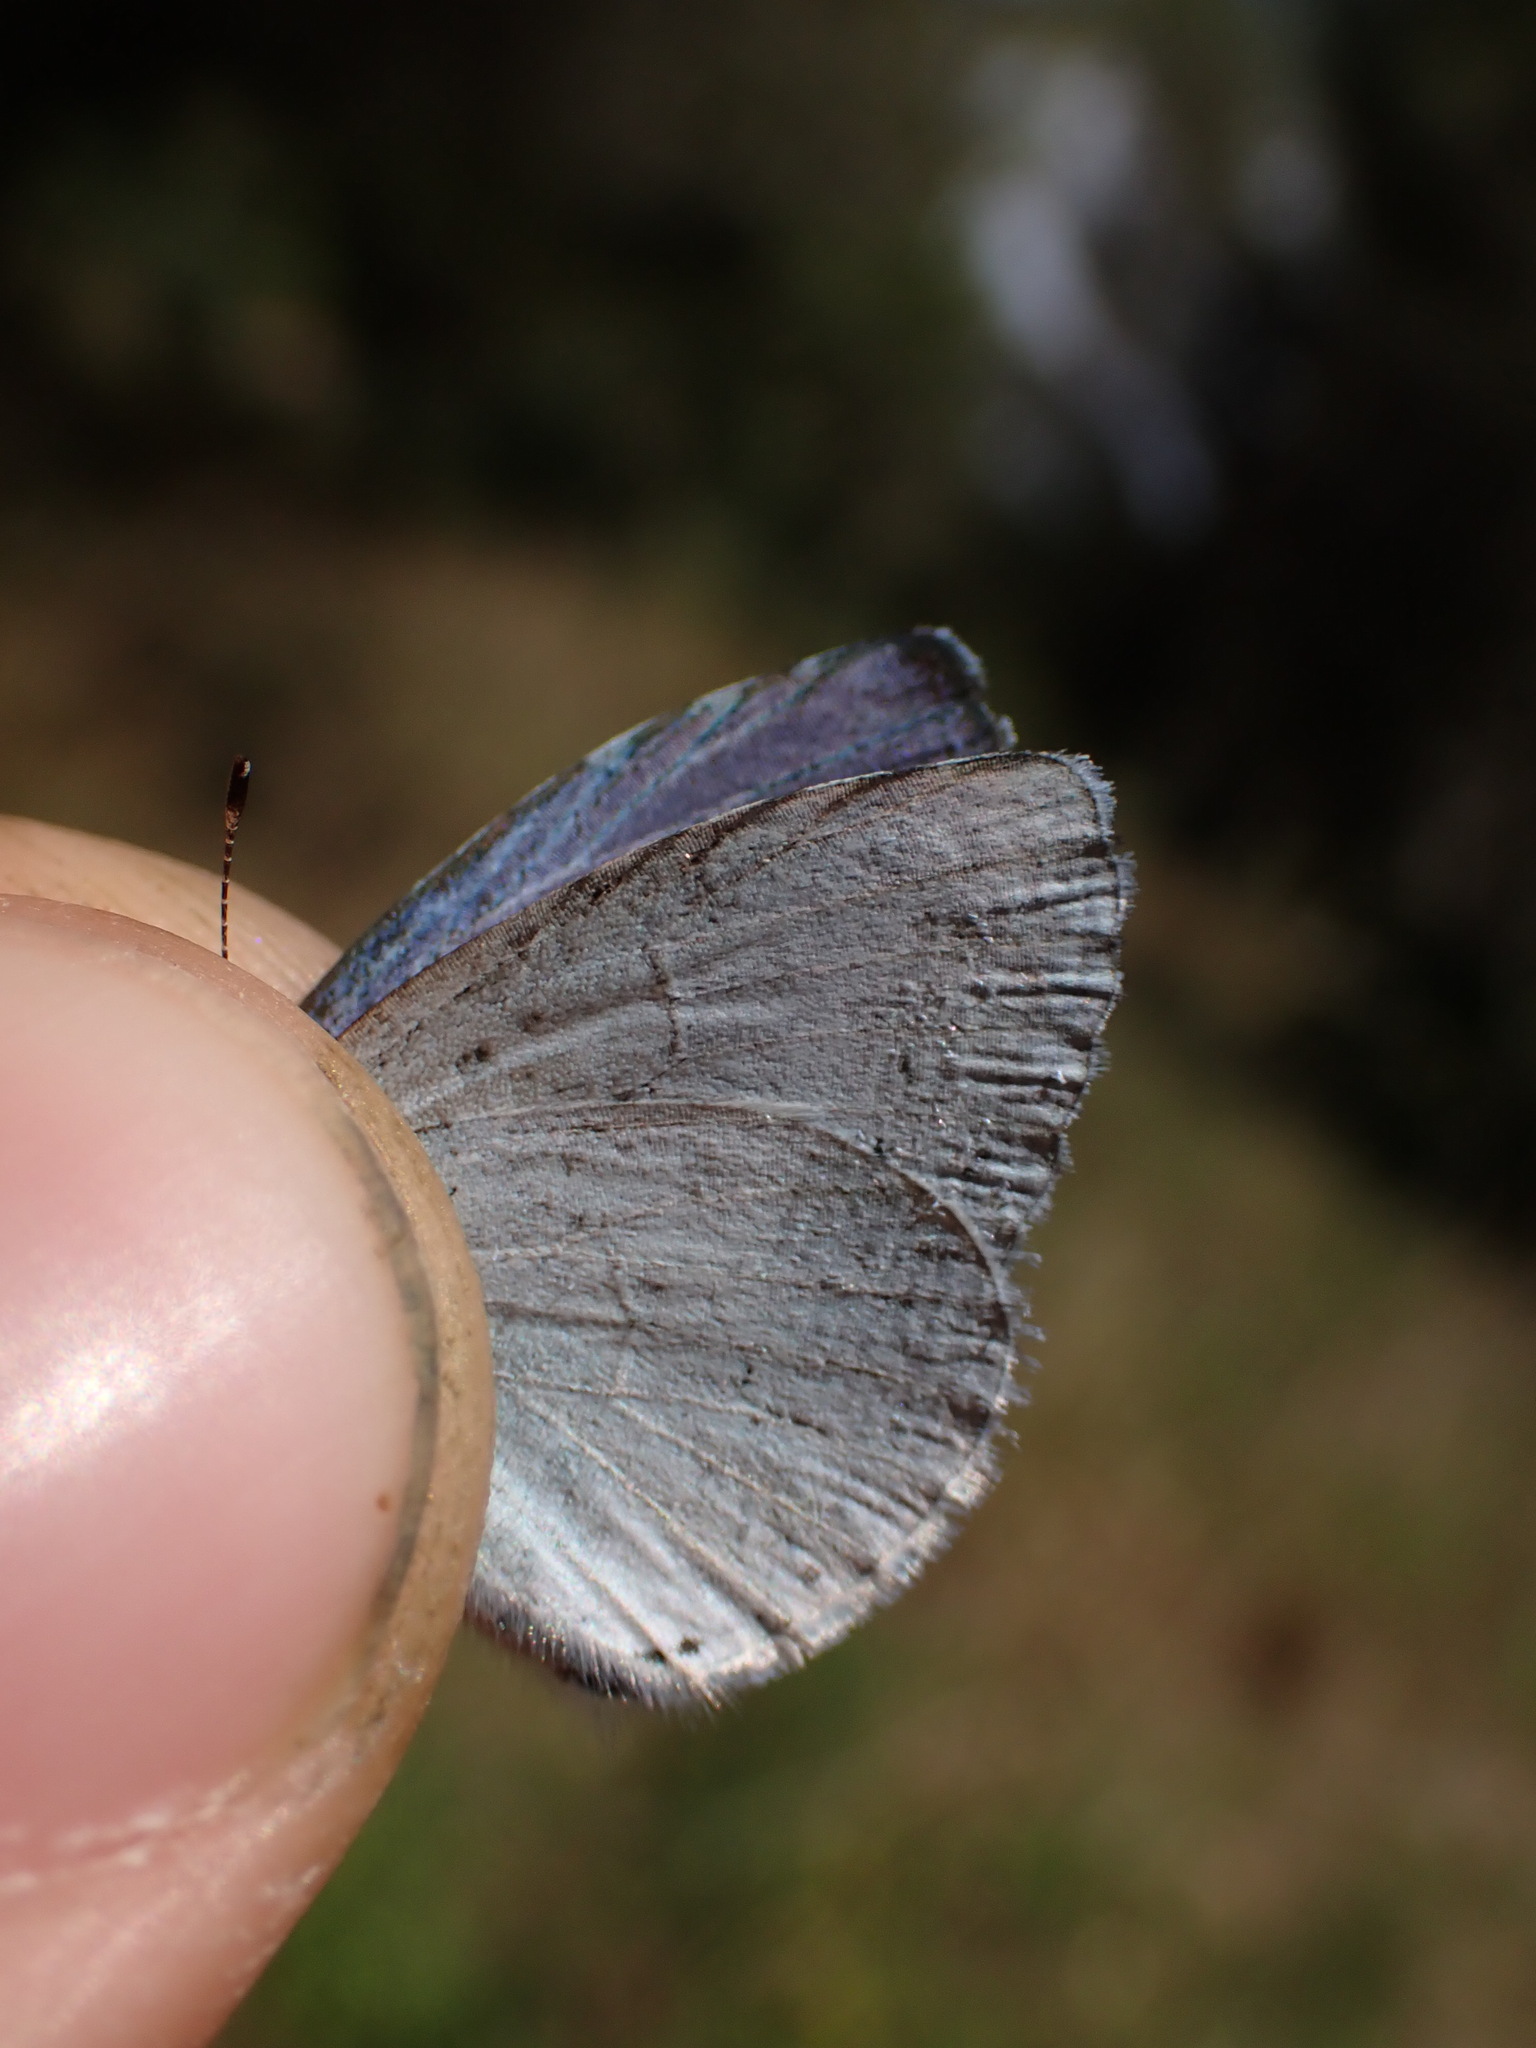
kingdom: Animalia
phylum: Arthropoda
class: Insecta
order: Lepidoptera
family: Lycaenidae
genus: Celastrina
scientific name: Celastrina argiolus
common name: Holly blue
